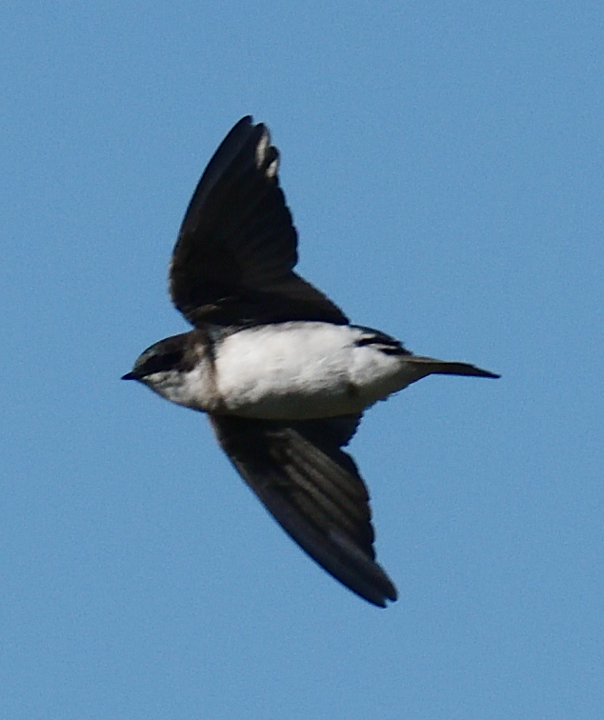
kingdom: Animalia
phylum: Chordata
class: Aves
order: Passeriformes
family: Hirundinidae
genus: Tachycineta
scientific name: Tachycineta bicolor
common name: Tree swallow
